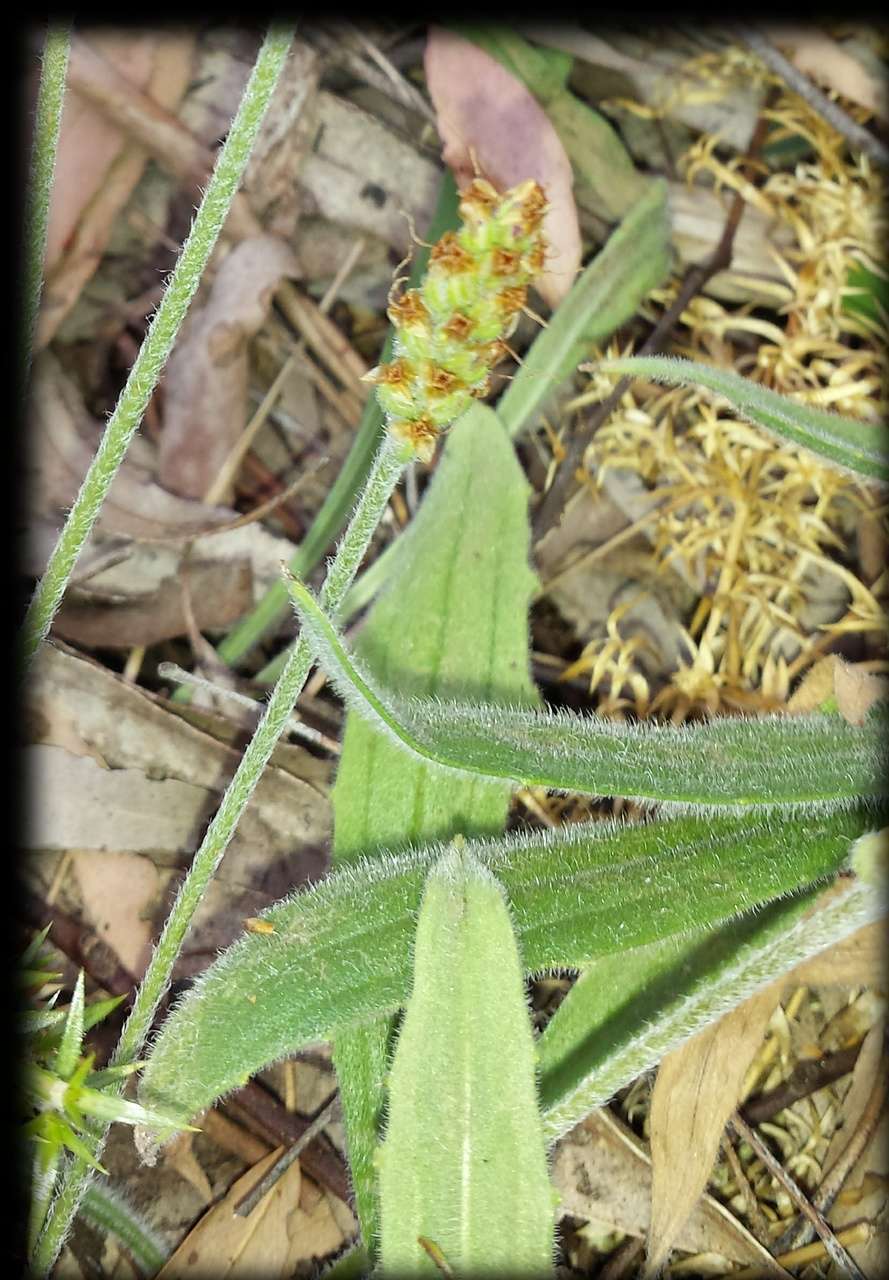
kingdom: Plantae
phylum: Tracheophyta
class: Magnoliopsida
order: Lamiales
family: Plantaginaceae
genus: Plantago
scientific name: Plantago varia
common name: Variable plantain
